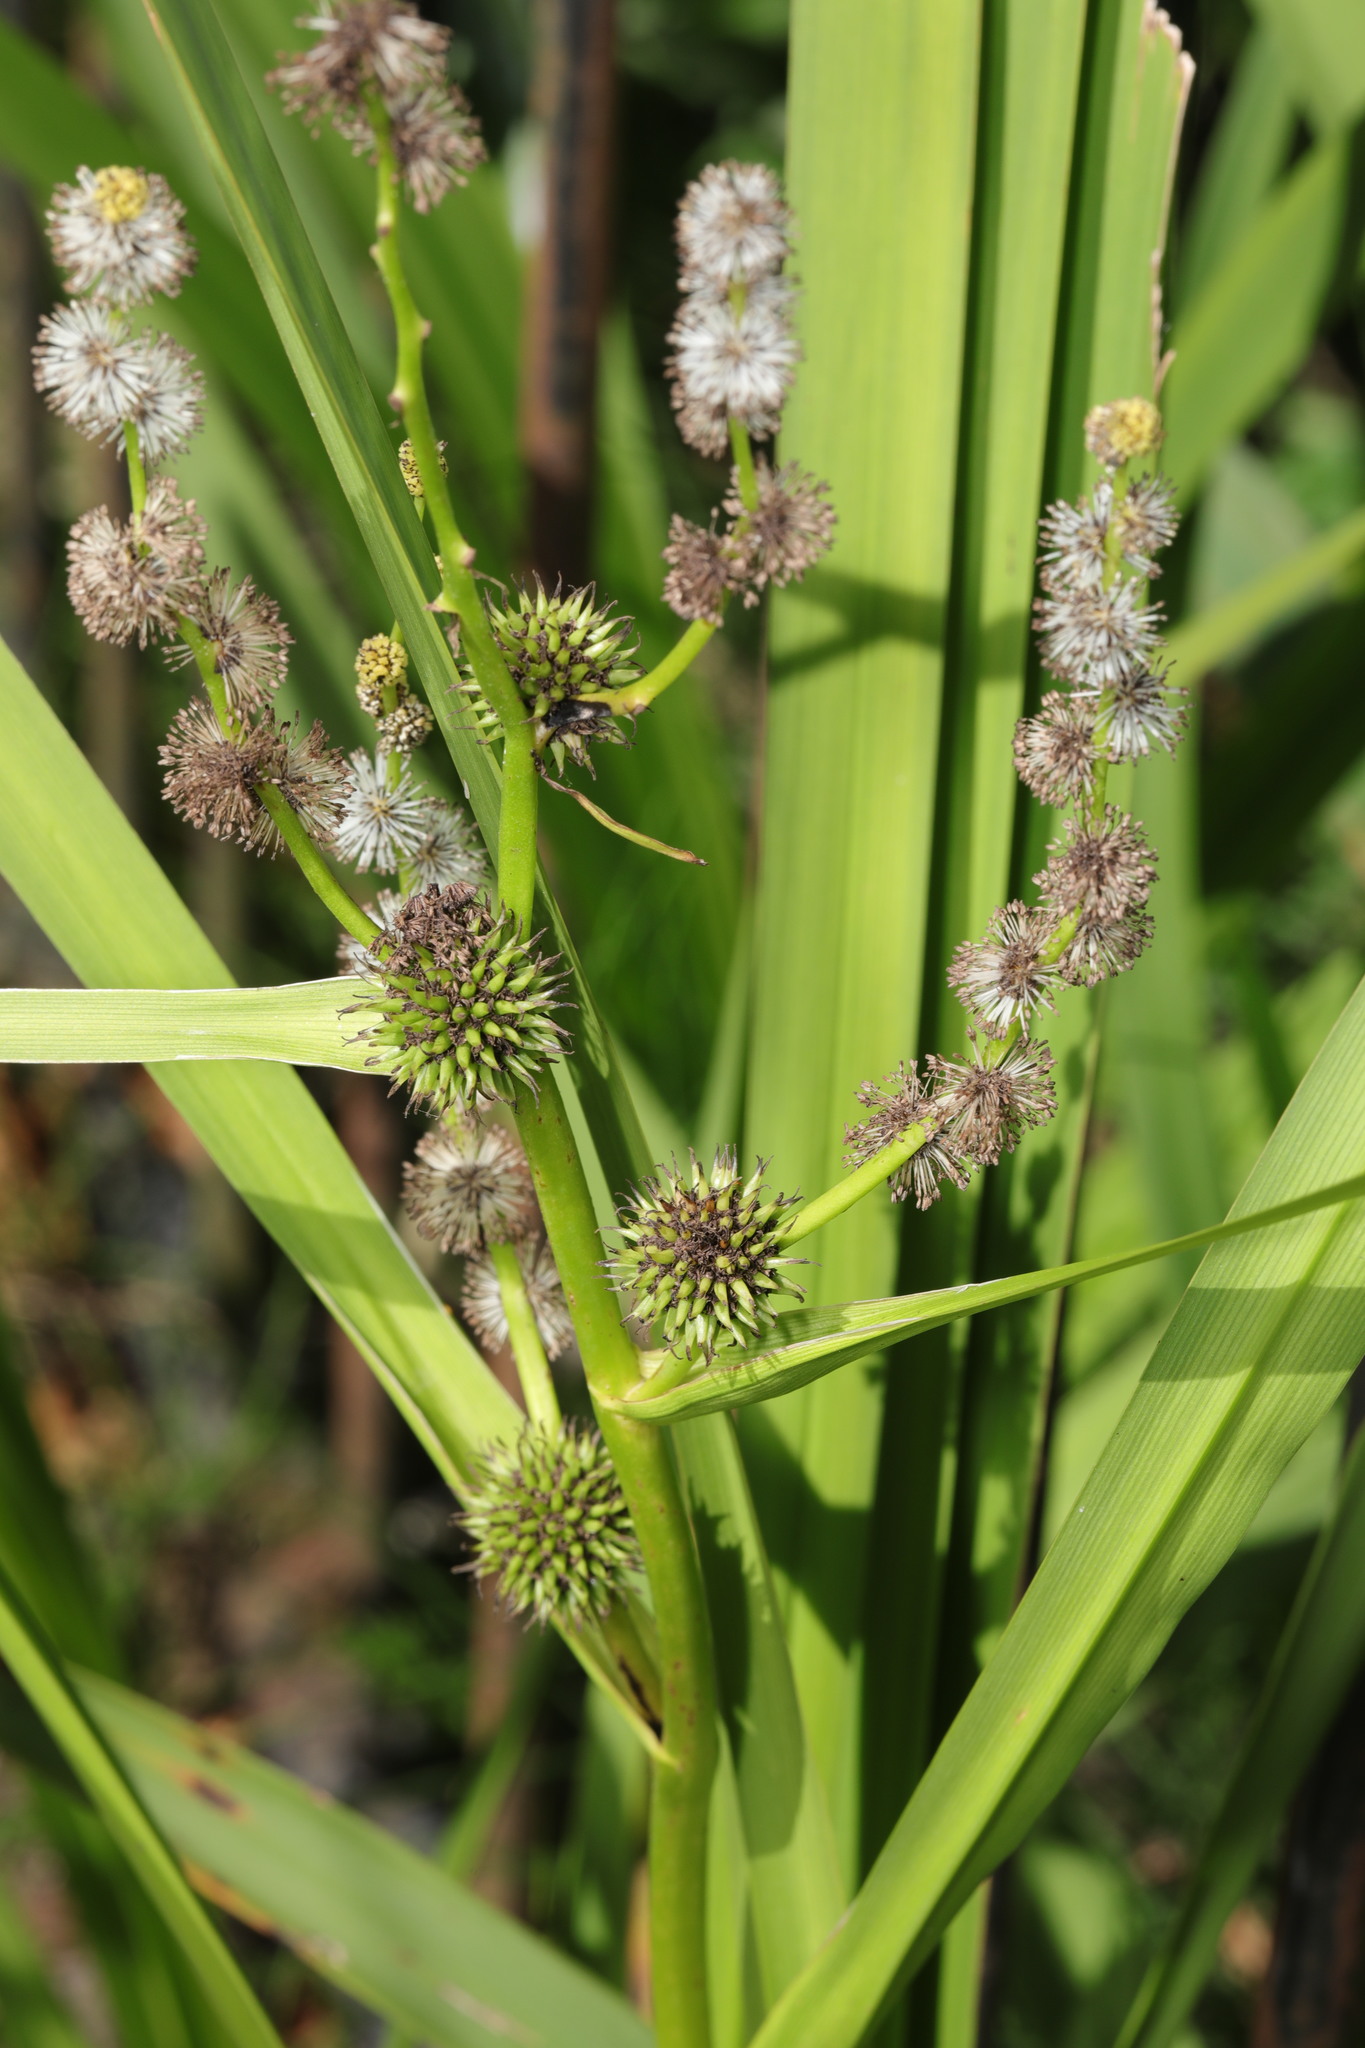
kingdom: Plantae
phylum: Tracheophyta
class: Liliopsida
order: Poales
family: Typhaceae
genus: Sparganium
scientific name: Sparganium erectum
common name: Branched bur-reed
